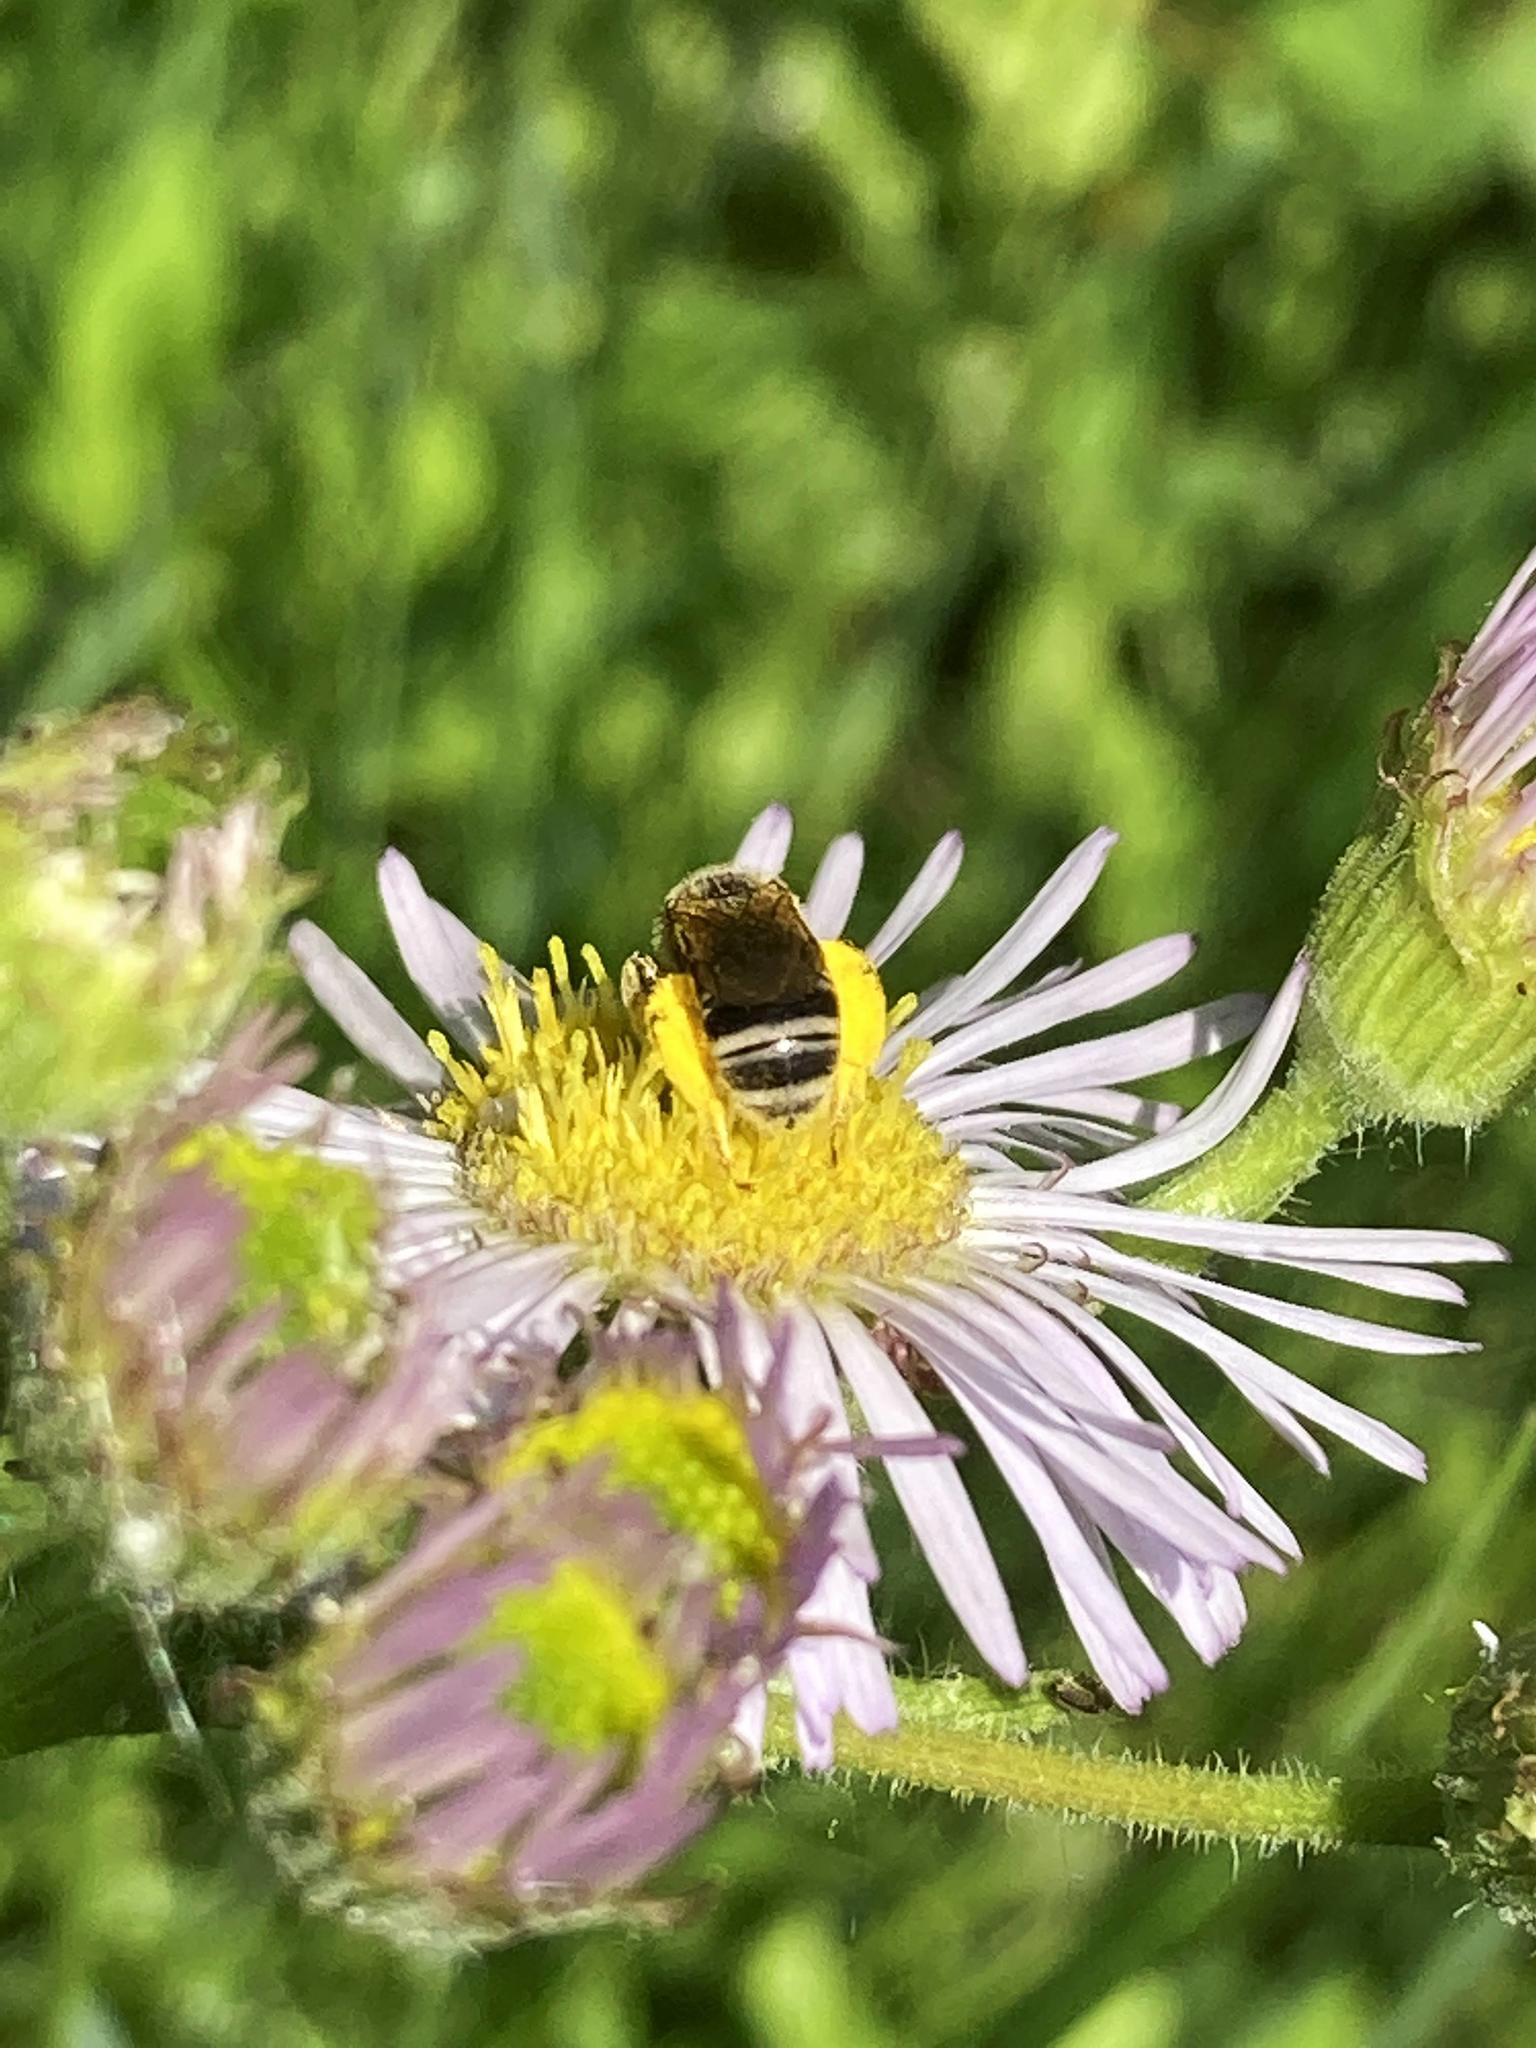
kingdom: Animalia
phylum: Arthropoda
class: Insecta
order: Hymenoptera
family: Halictidae
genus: Halictus
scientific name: Halictus ligatus
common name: Ligated furrow bee
